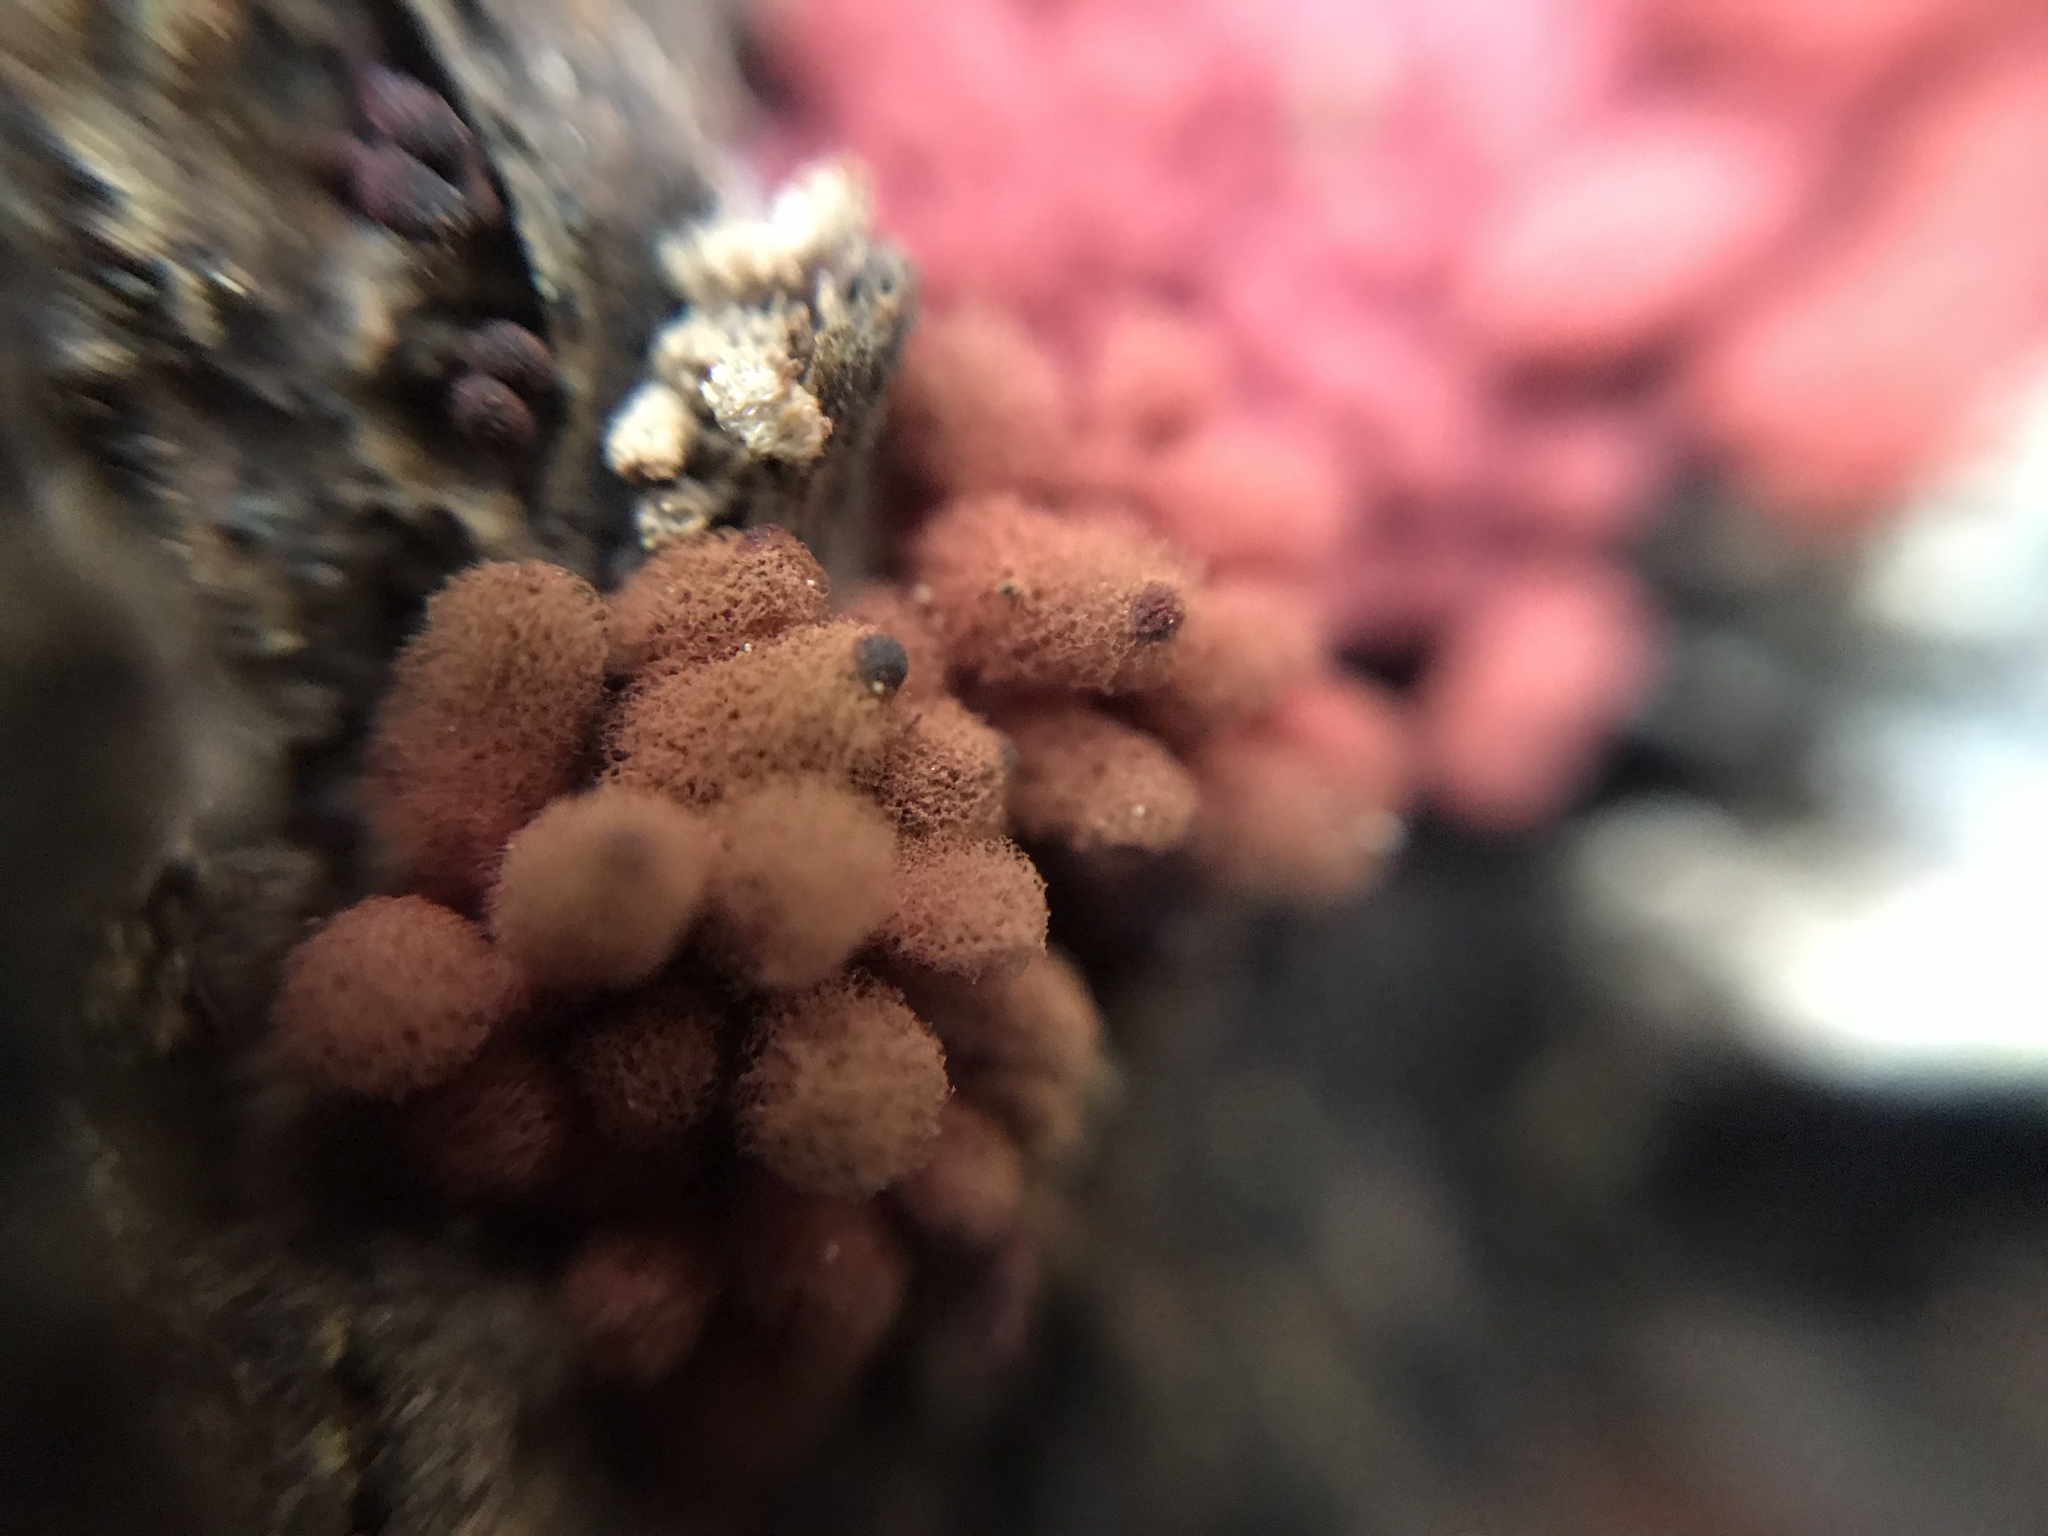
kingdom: Protozoa
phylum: Mycetozoa
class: Myxomycetes
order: Trichiales
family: Arcyriaceae
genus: Arcyria
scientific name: Arcyria denudata
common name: Carnival candy slime mold
